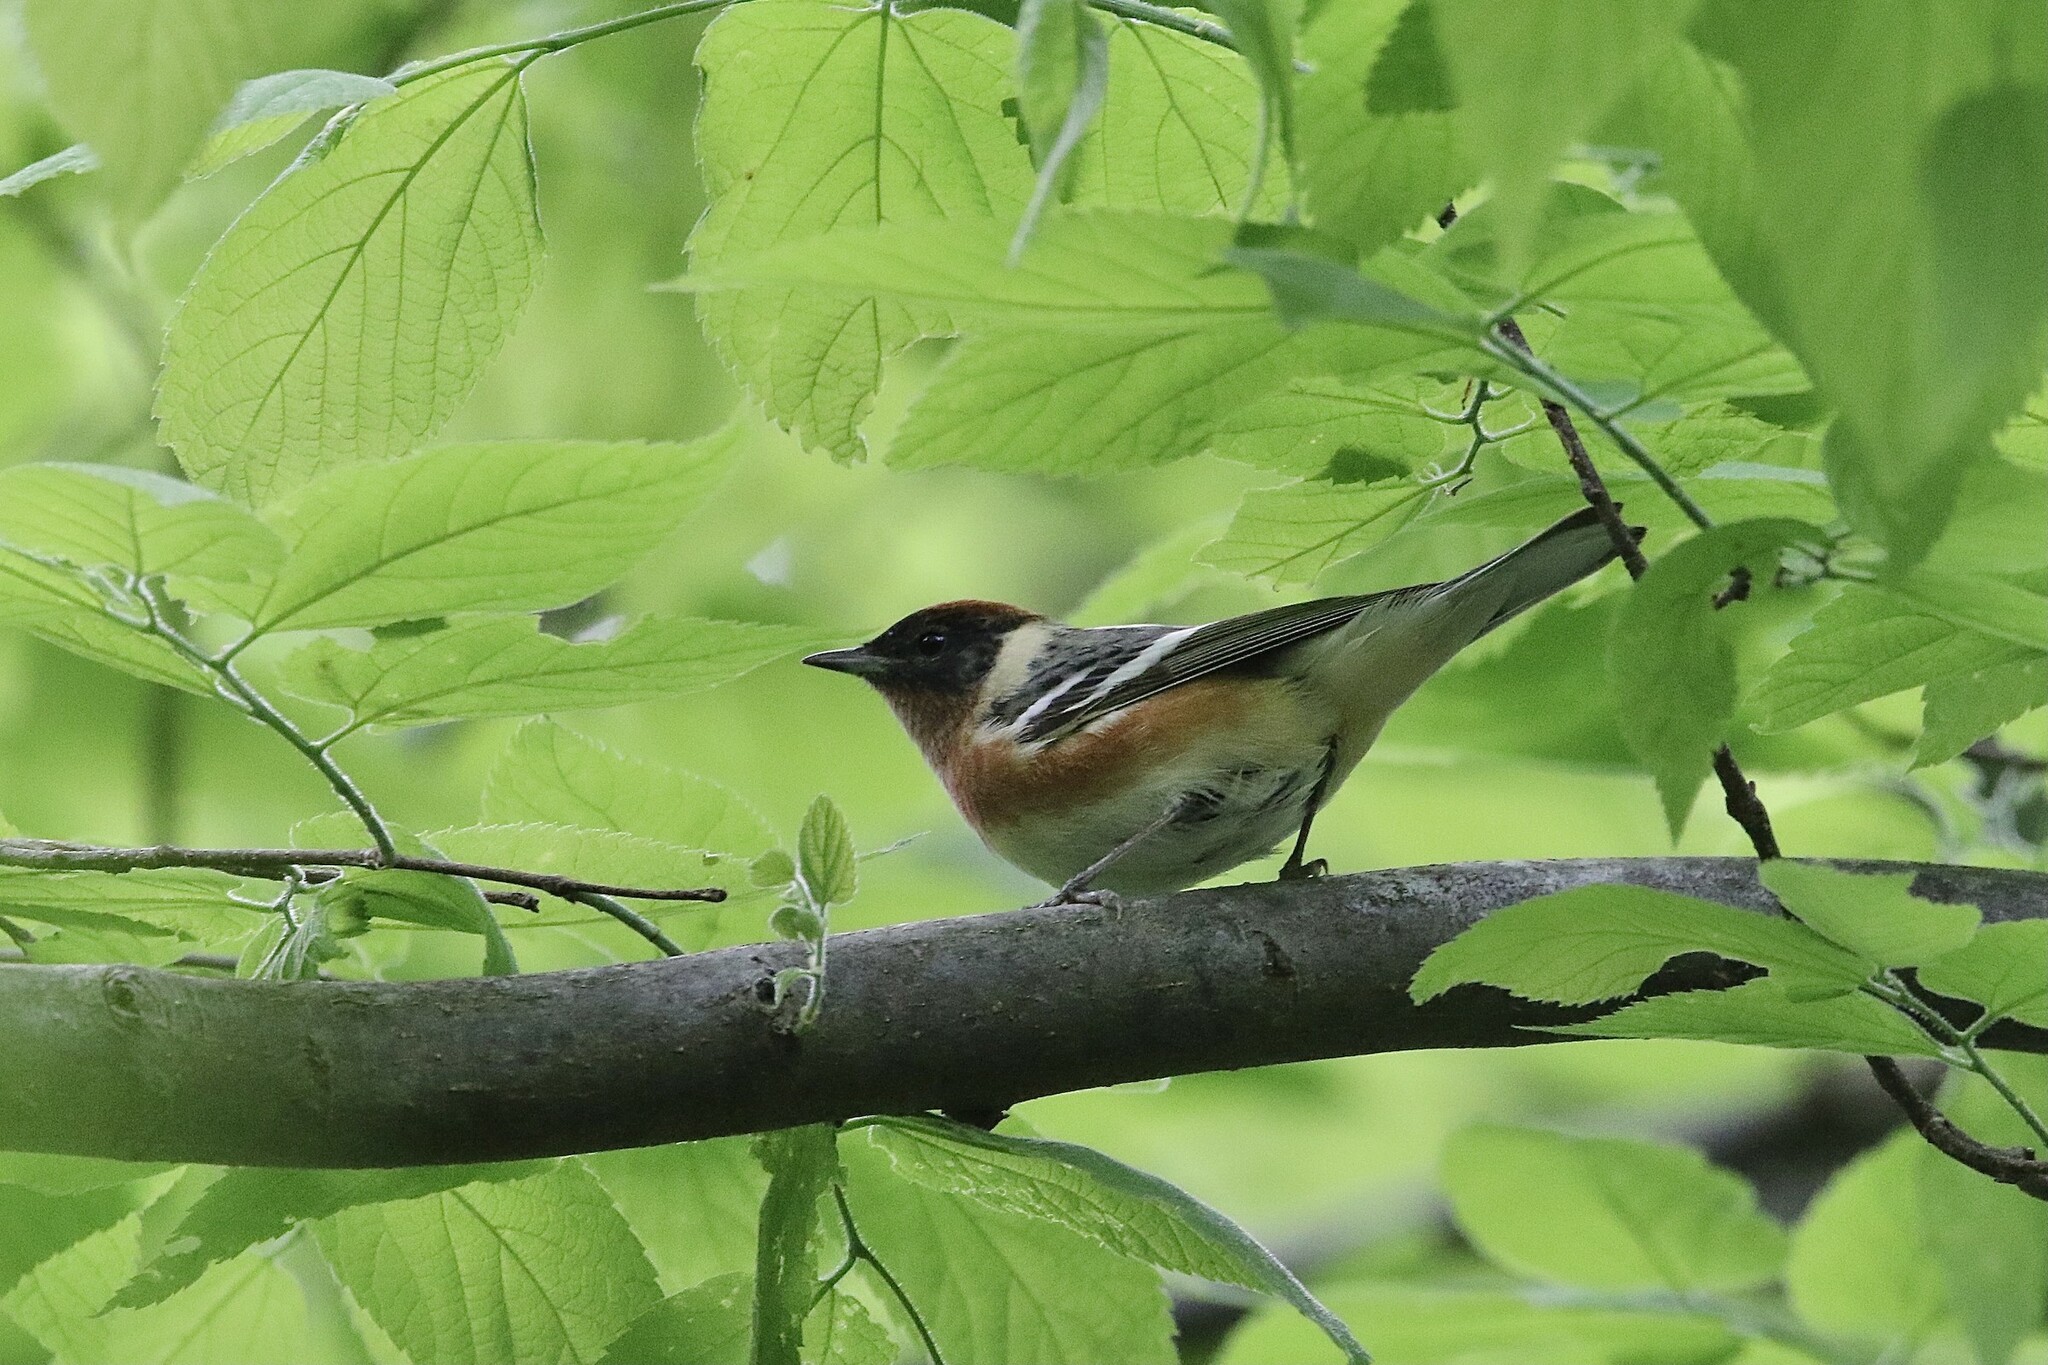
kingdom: Animalia
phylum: Chordata
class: Aves
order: Passeriformes
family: Parulidae
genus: Setophaga
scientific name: Setophaga castanea
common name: Bay-breasted warbler
